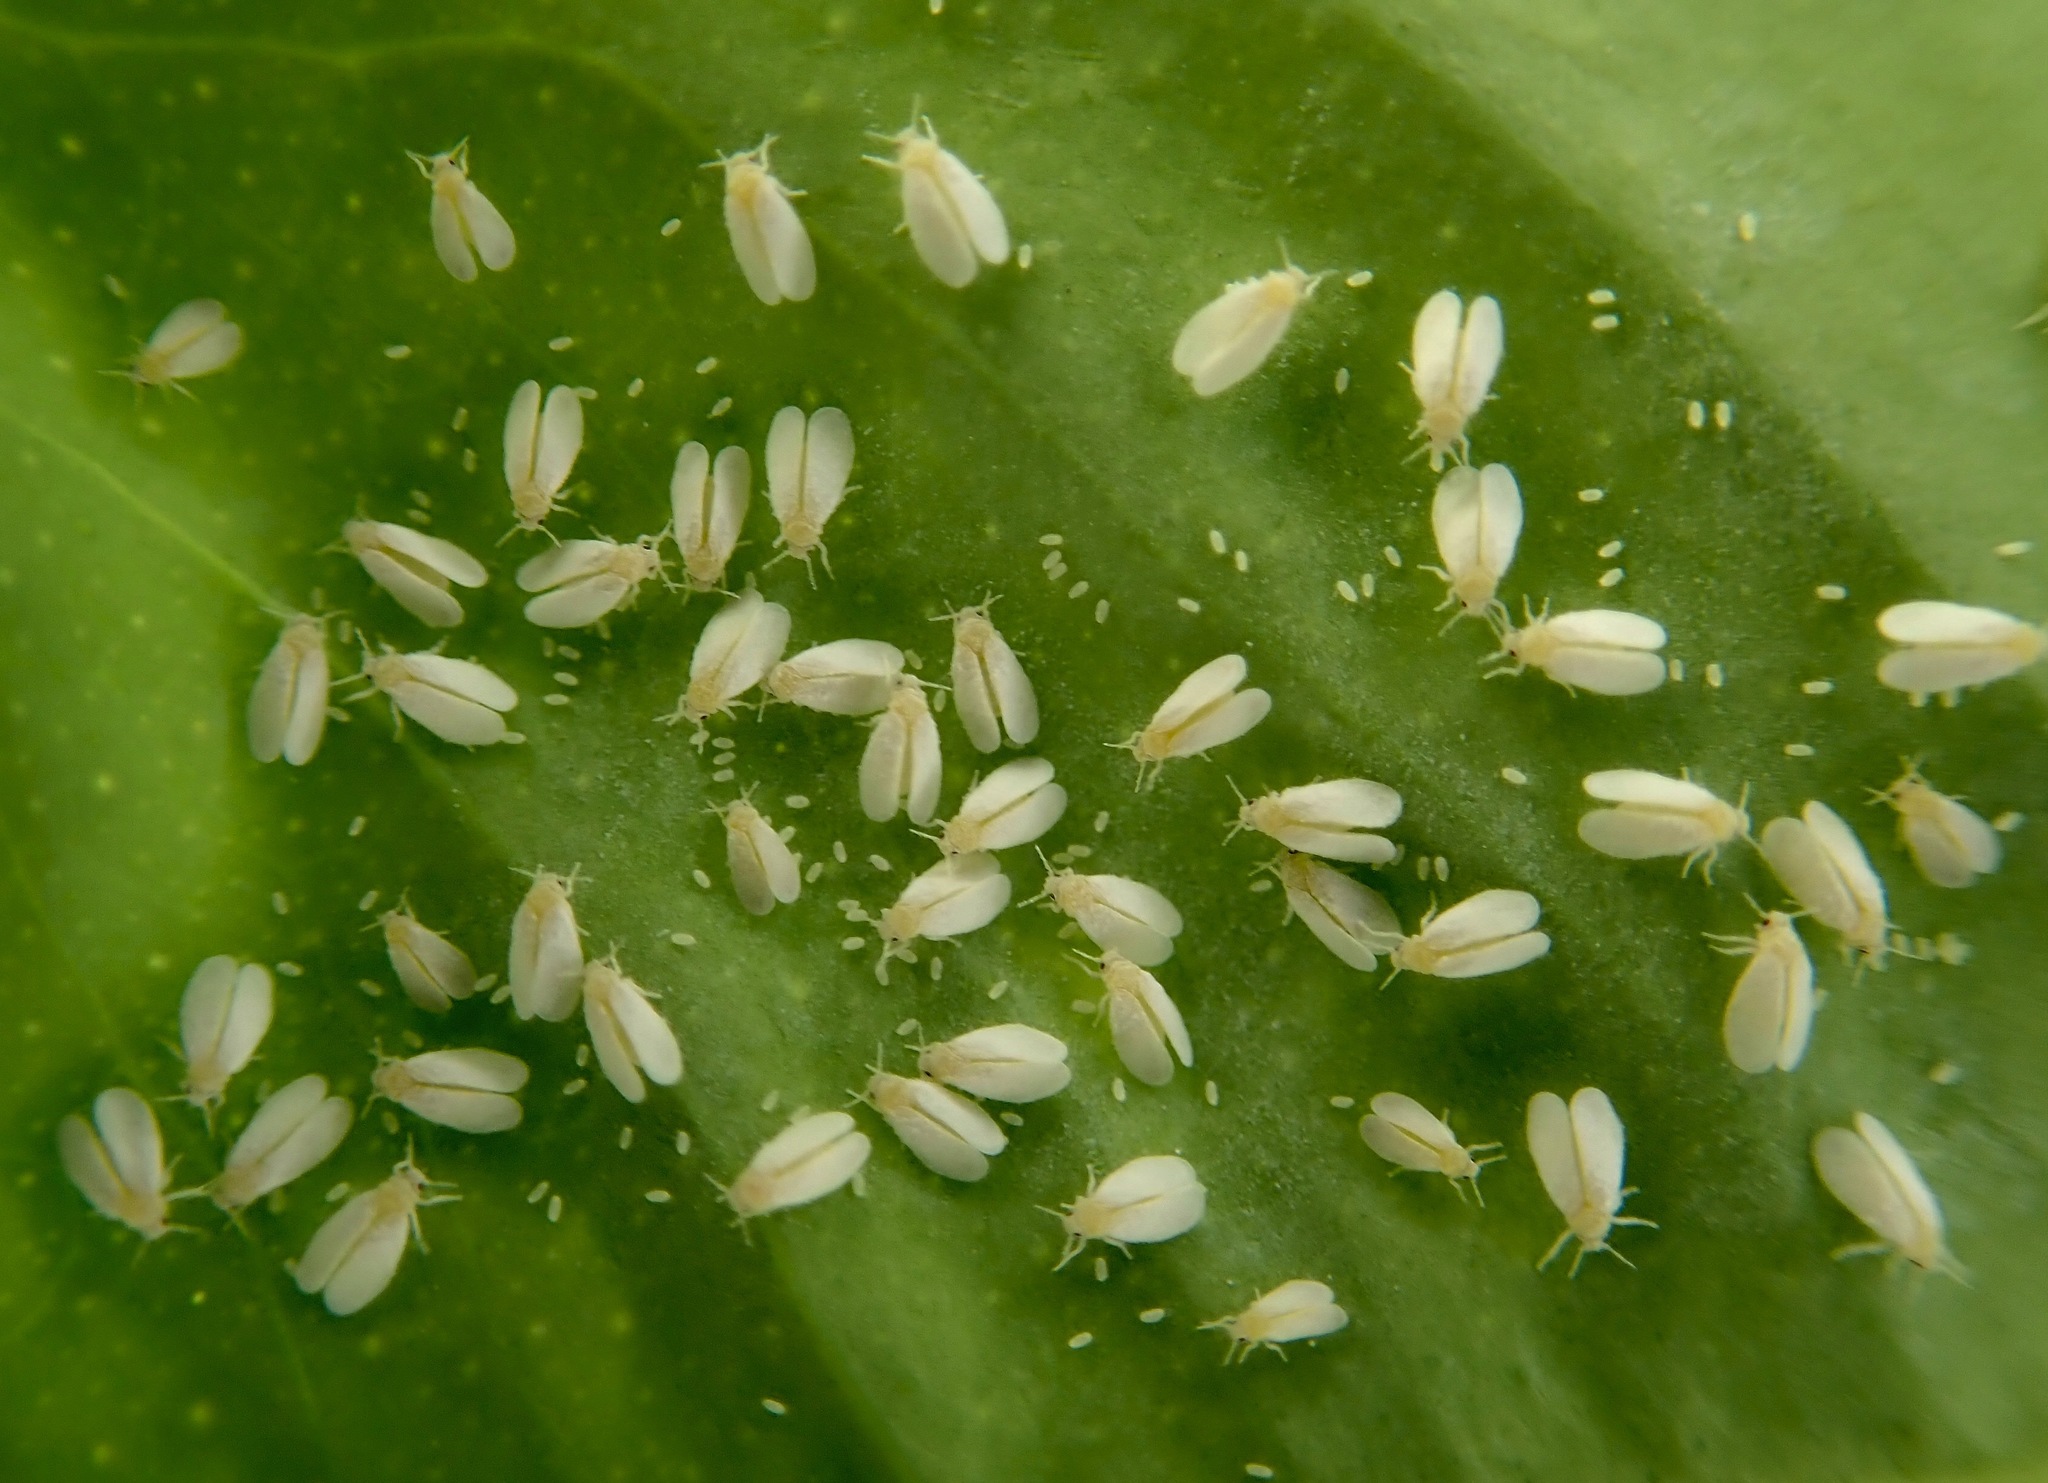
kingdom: Animalia
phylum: Arthropoda
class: Insecta
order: Hemiptera
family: Aleyrodidae
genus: Trialeurodes
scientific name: Trialeurodes vaporariorum
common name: Greenhouse white fly
